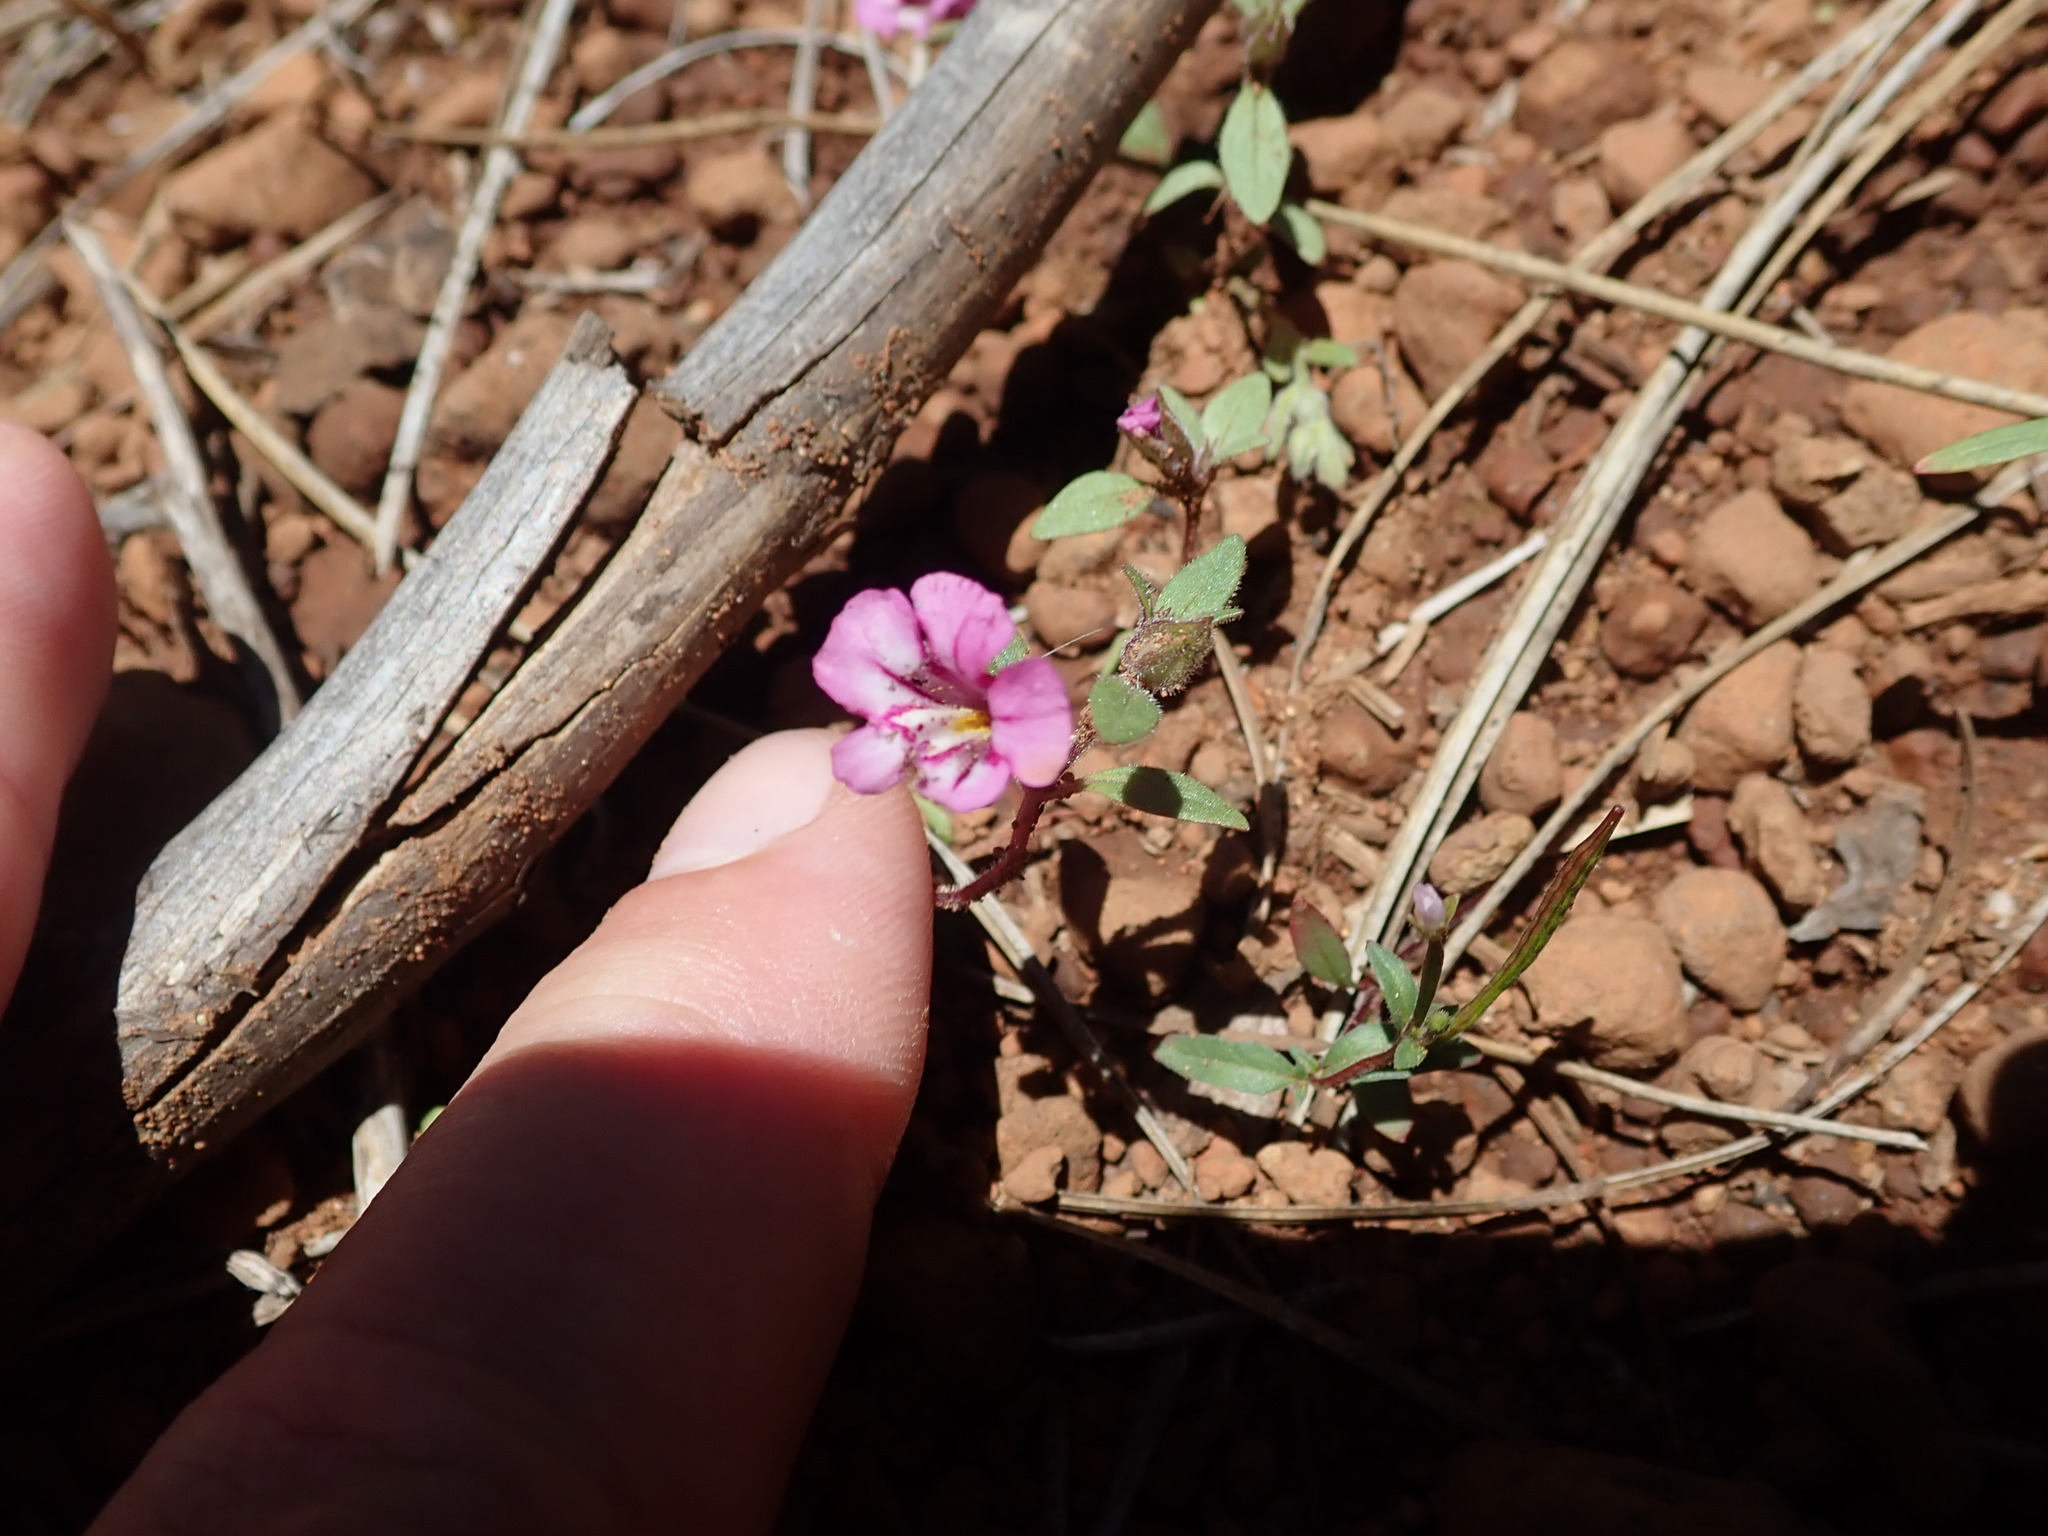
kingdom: Plantae
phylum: Tracheophyta
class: Magnoliopsida
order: Lamiales
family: Phrymaceae
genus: Diplacus
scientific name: Diplacus layneae
